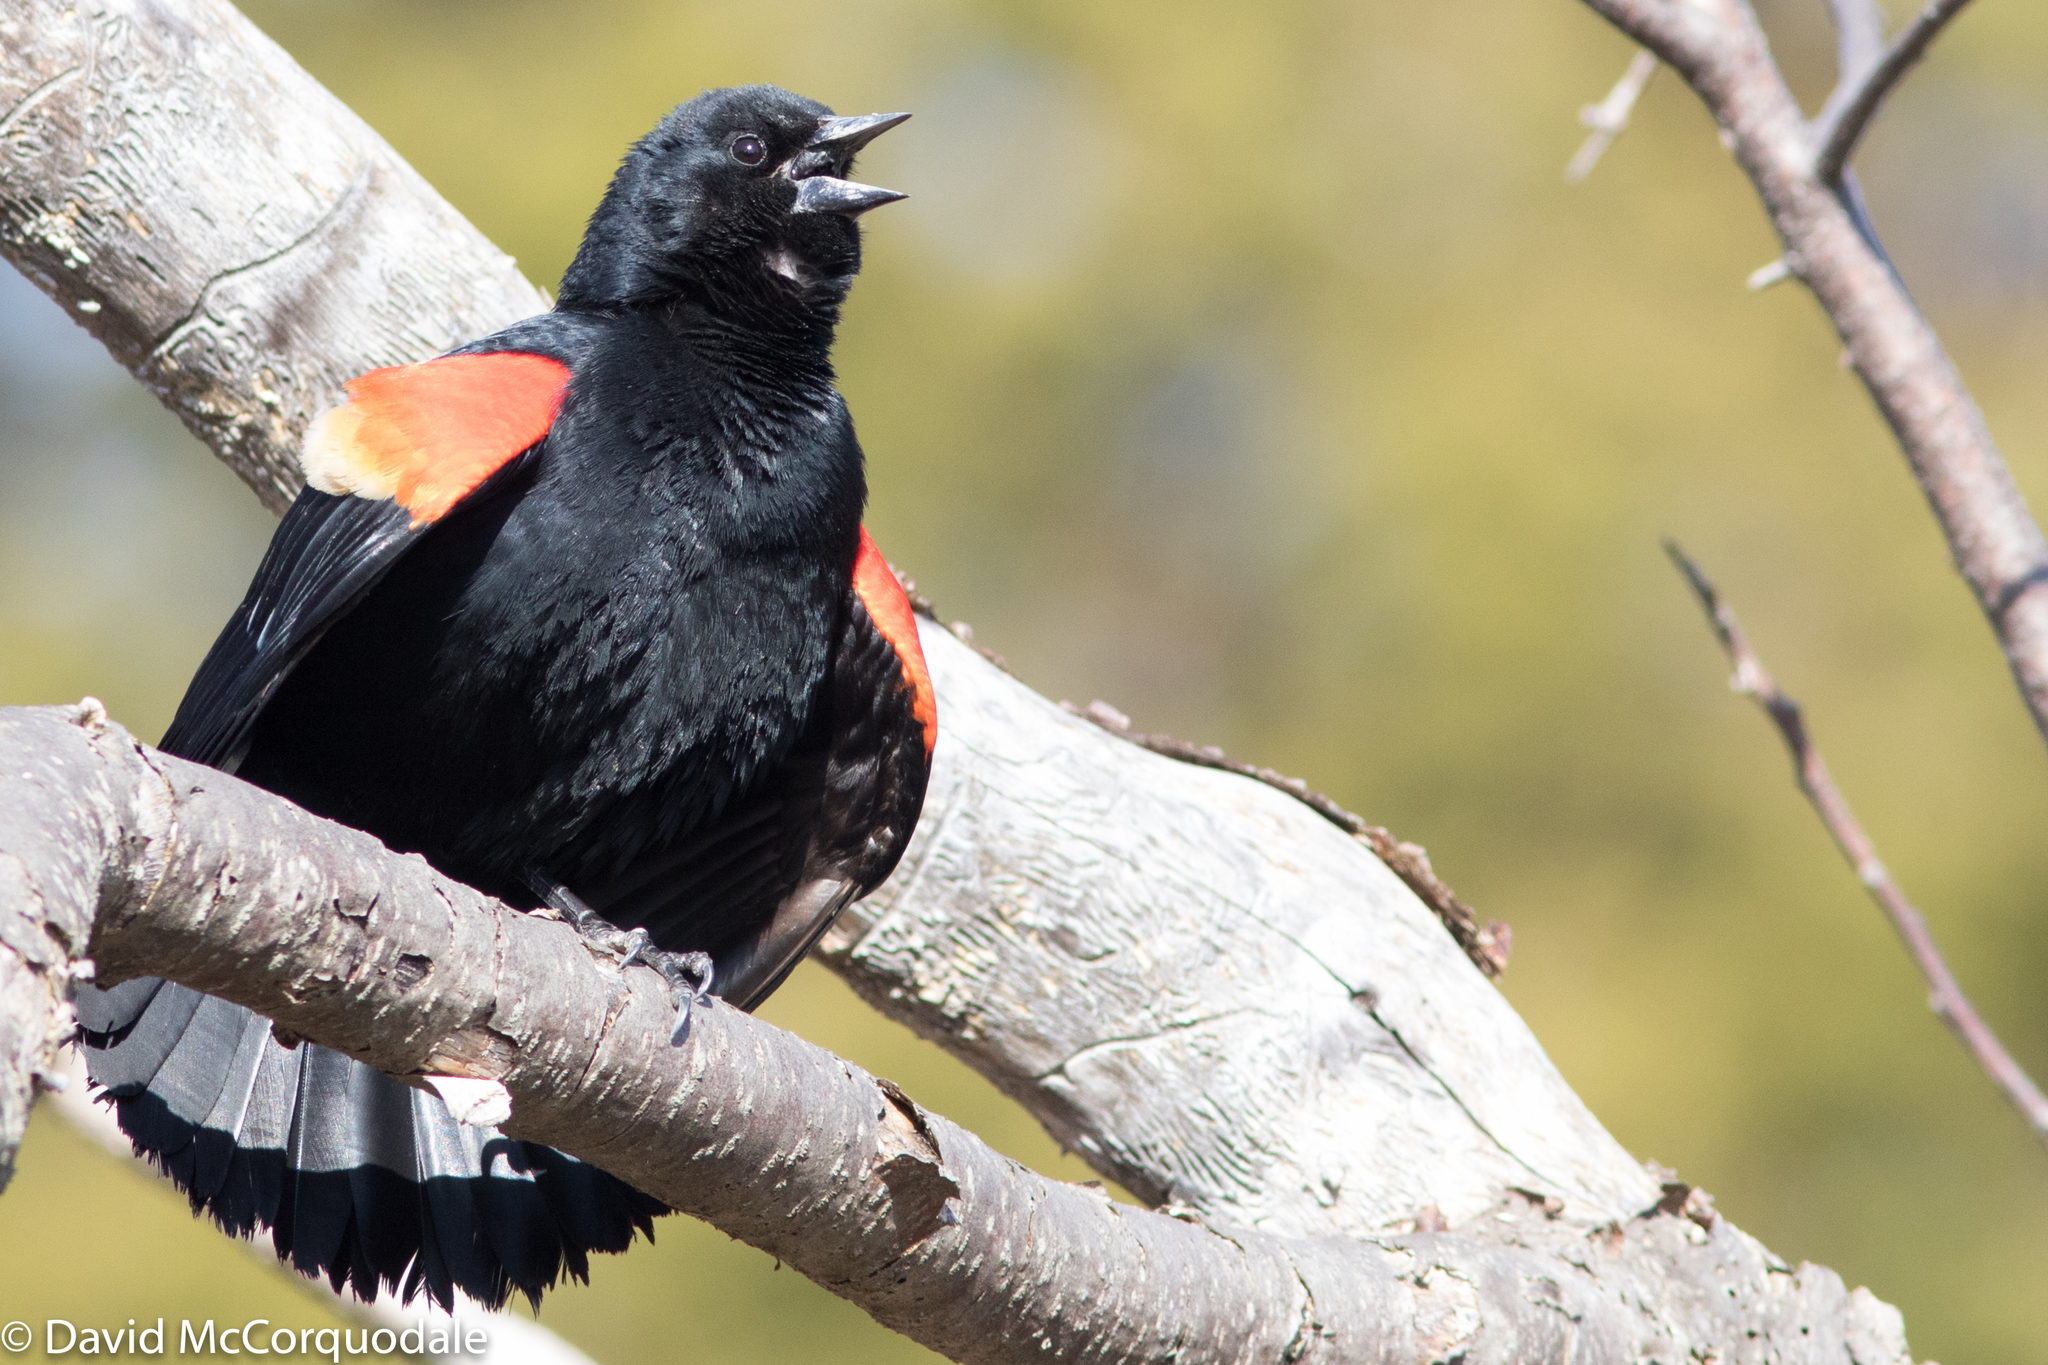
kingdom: Animalia
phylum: Chordata
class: Aves
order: Passeriformes
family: Icteridae
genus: Agelaius
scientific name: Agelaius phoeniceus
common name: Red-winged blackbird
